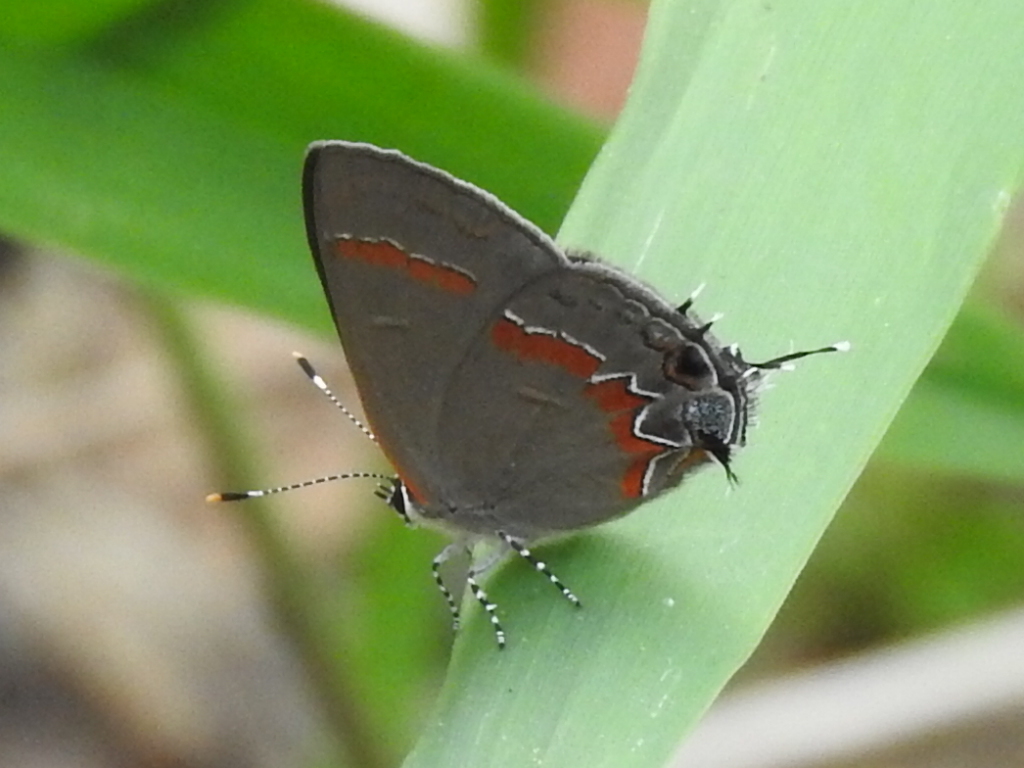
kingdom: Animalia
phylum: Arthropoda
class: Insecta
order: Lepidoptera
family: Lycaenidae
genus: Calycopis
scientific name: Calycopis cecrops
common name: Red-banded hairstreak
